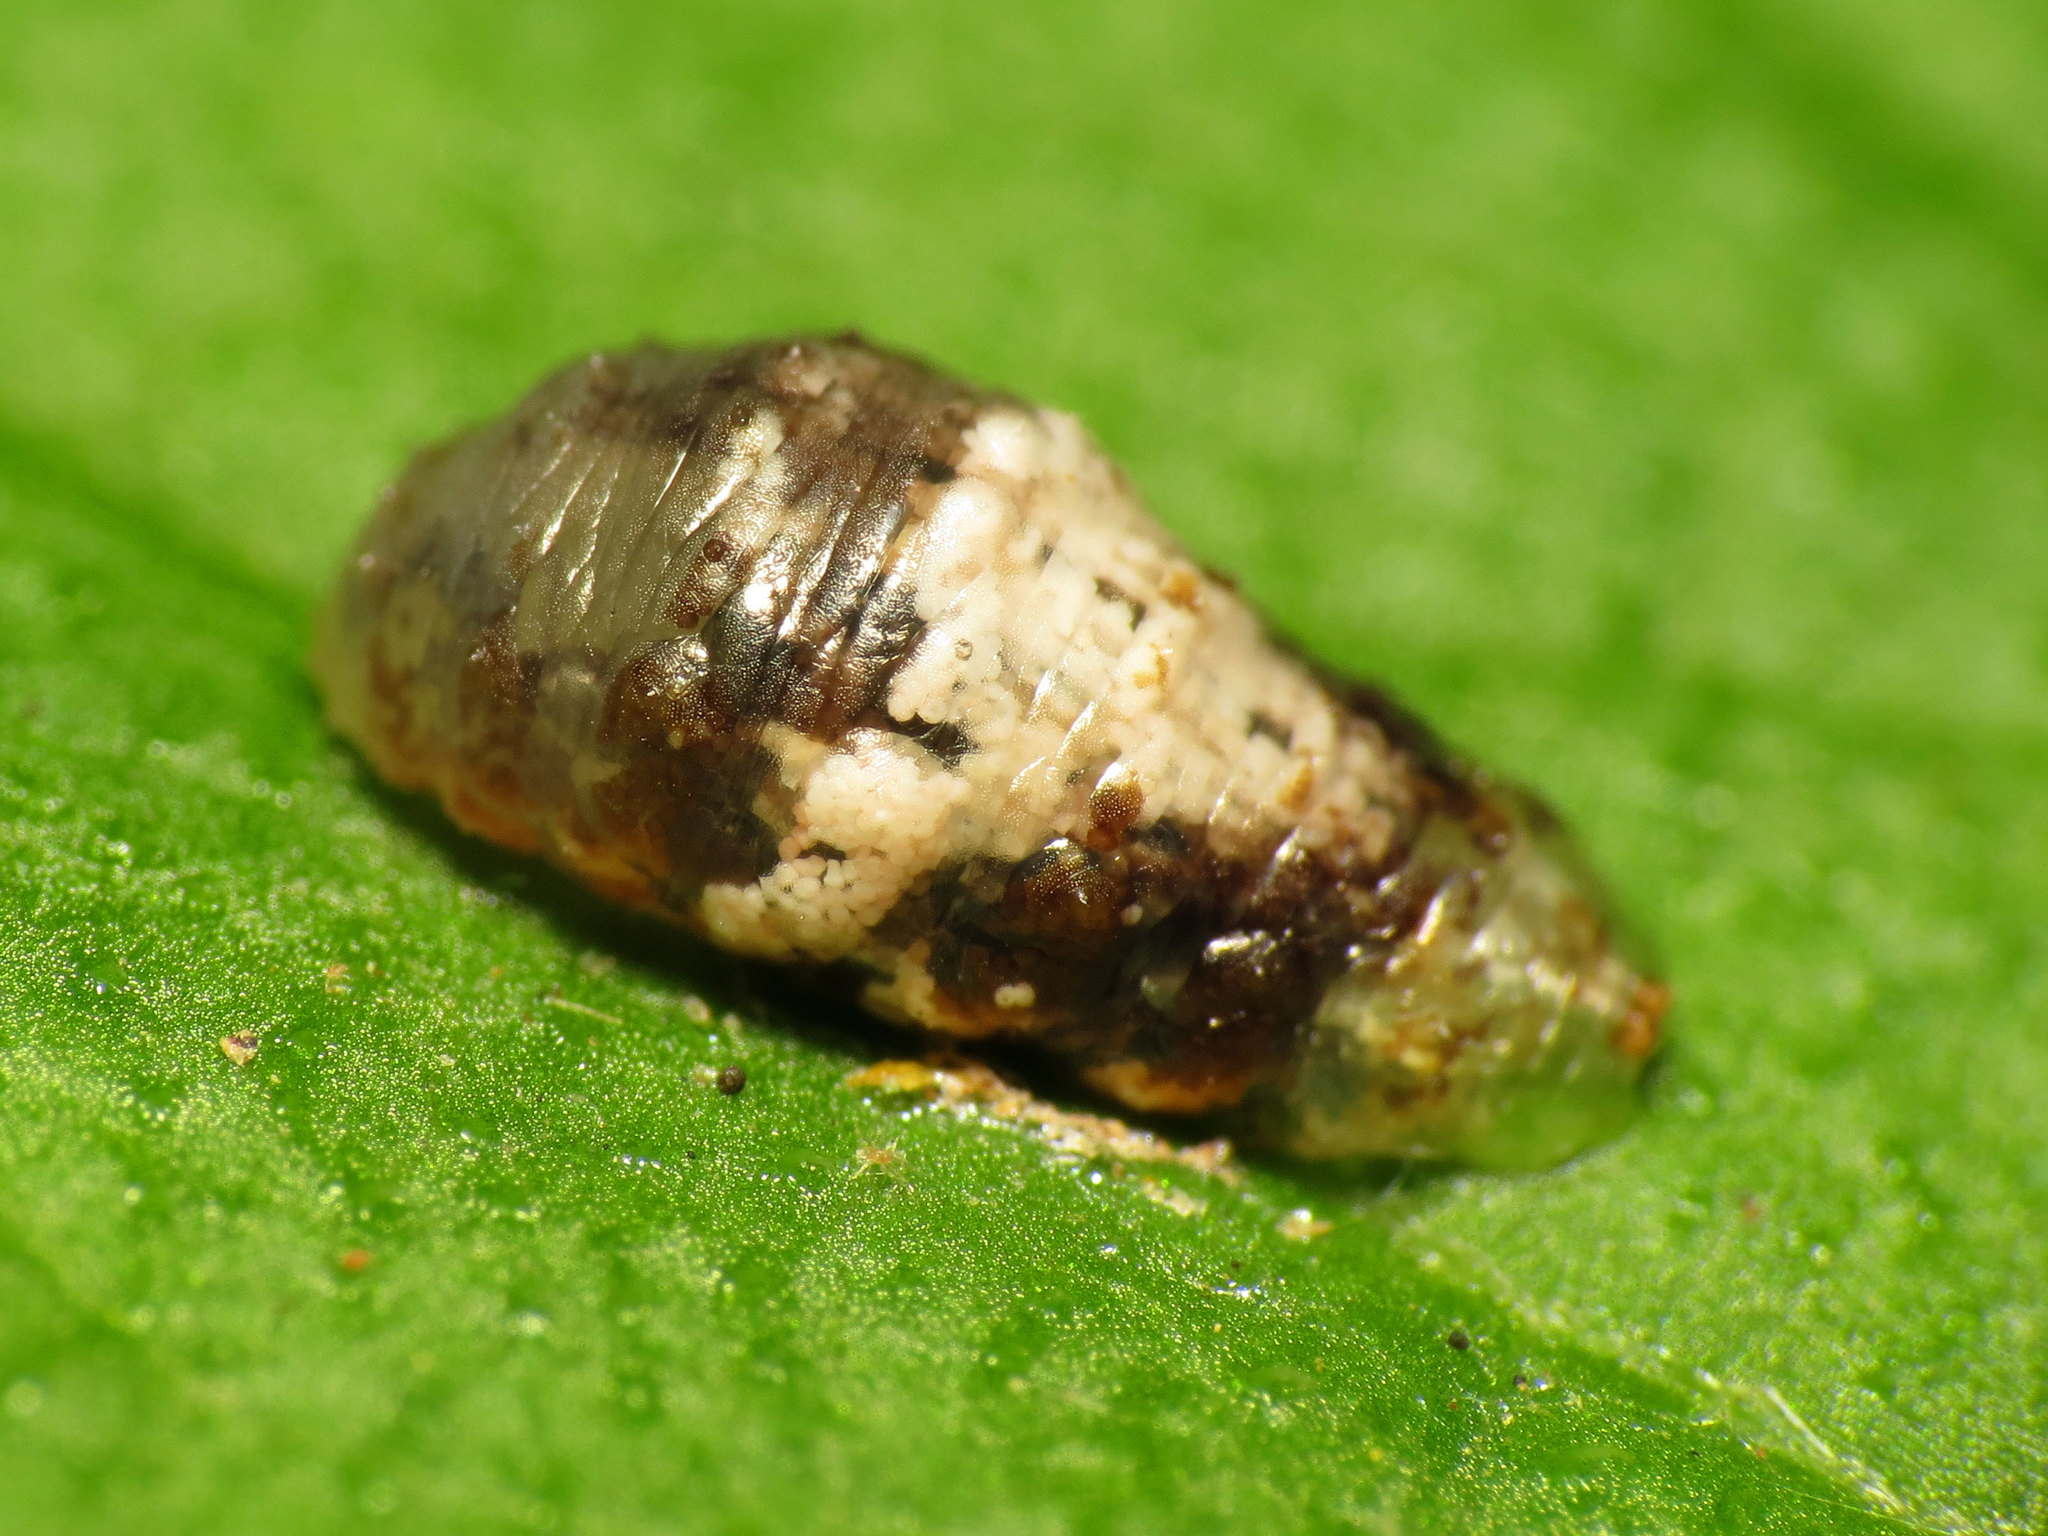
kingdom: Animalia
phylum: Arthropoda
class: Insecta
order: Diptera
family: Syrphidae
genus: Ocyptamus
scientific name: Ocyptamus fuscipennis
